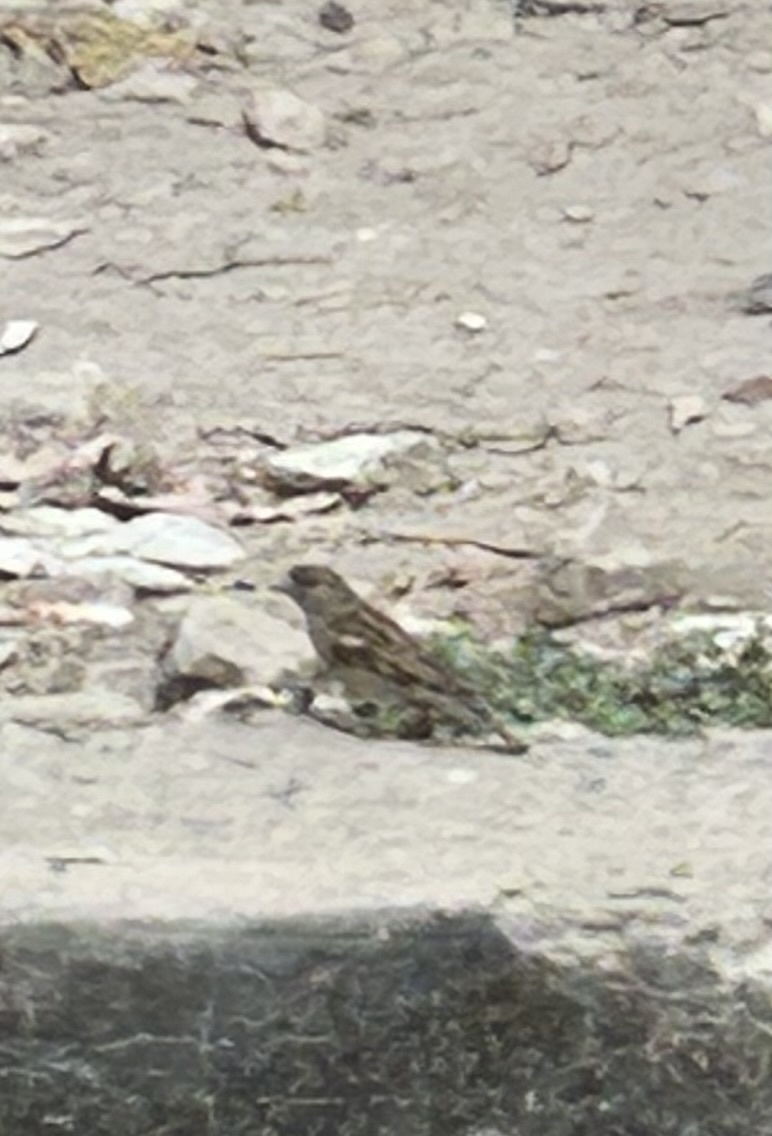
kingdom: Animalia
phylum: Chordata
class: Aves
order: Passeriformes
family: Passeridae
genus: Passer
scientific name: Passer domesticus
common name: House sparrow
